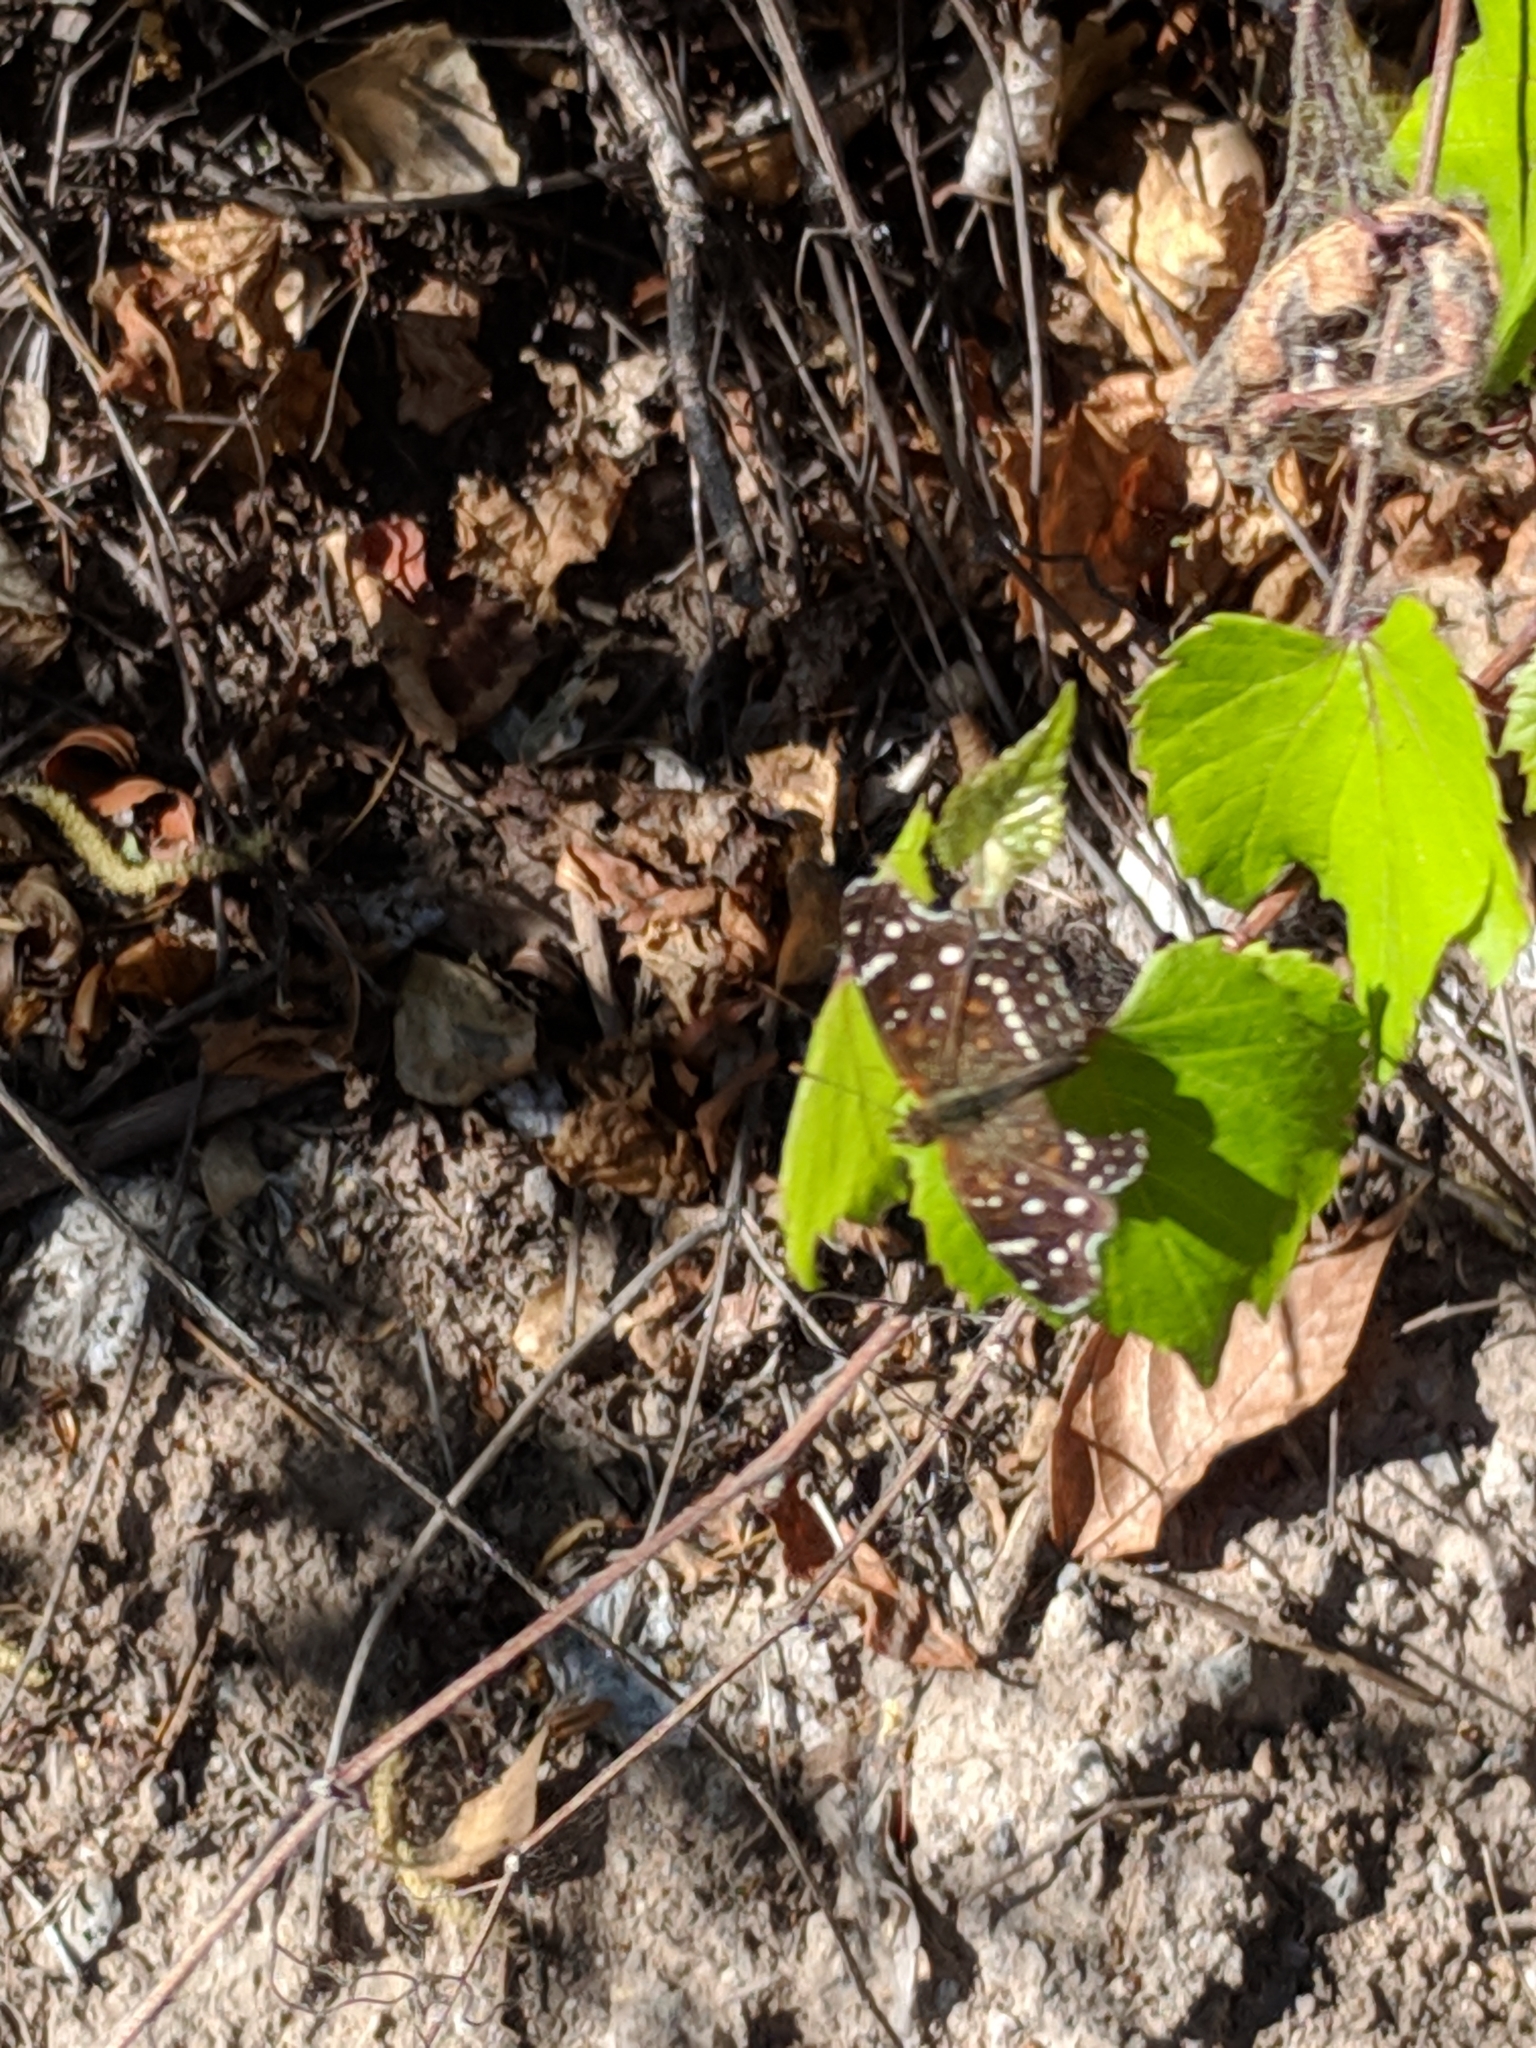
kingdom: Animalia
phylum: Arthropoda
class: Insecta
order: Lepidoptera
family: Nymphalidae
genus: Anthanassa
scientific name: Anthanassa texana
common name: Texan crescent
